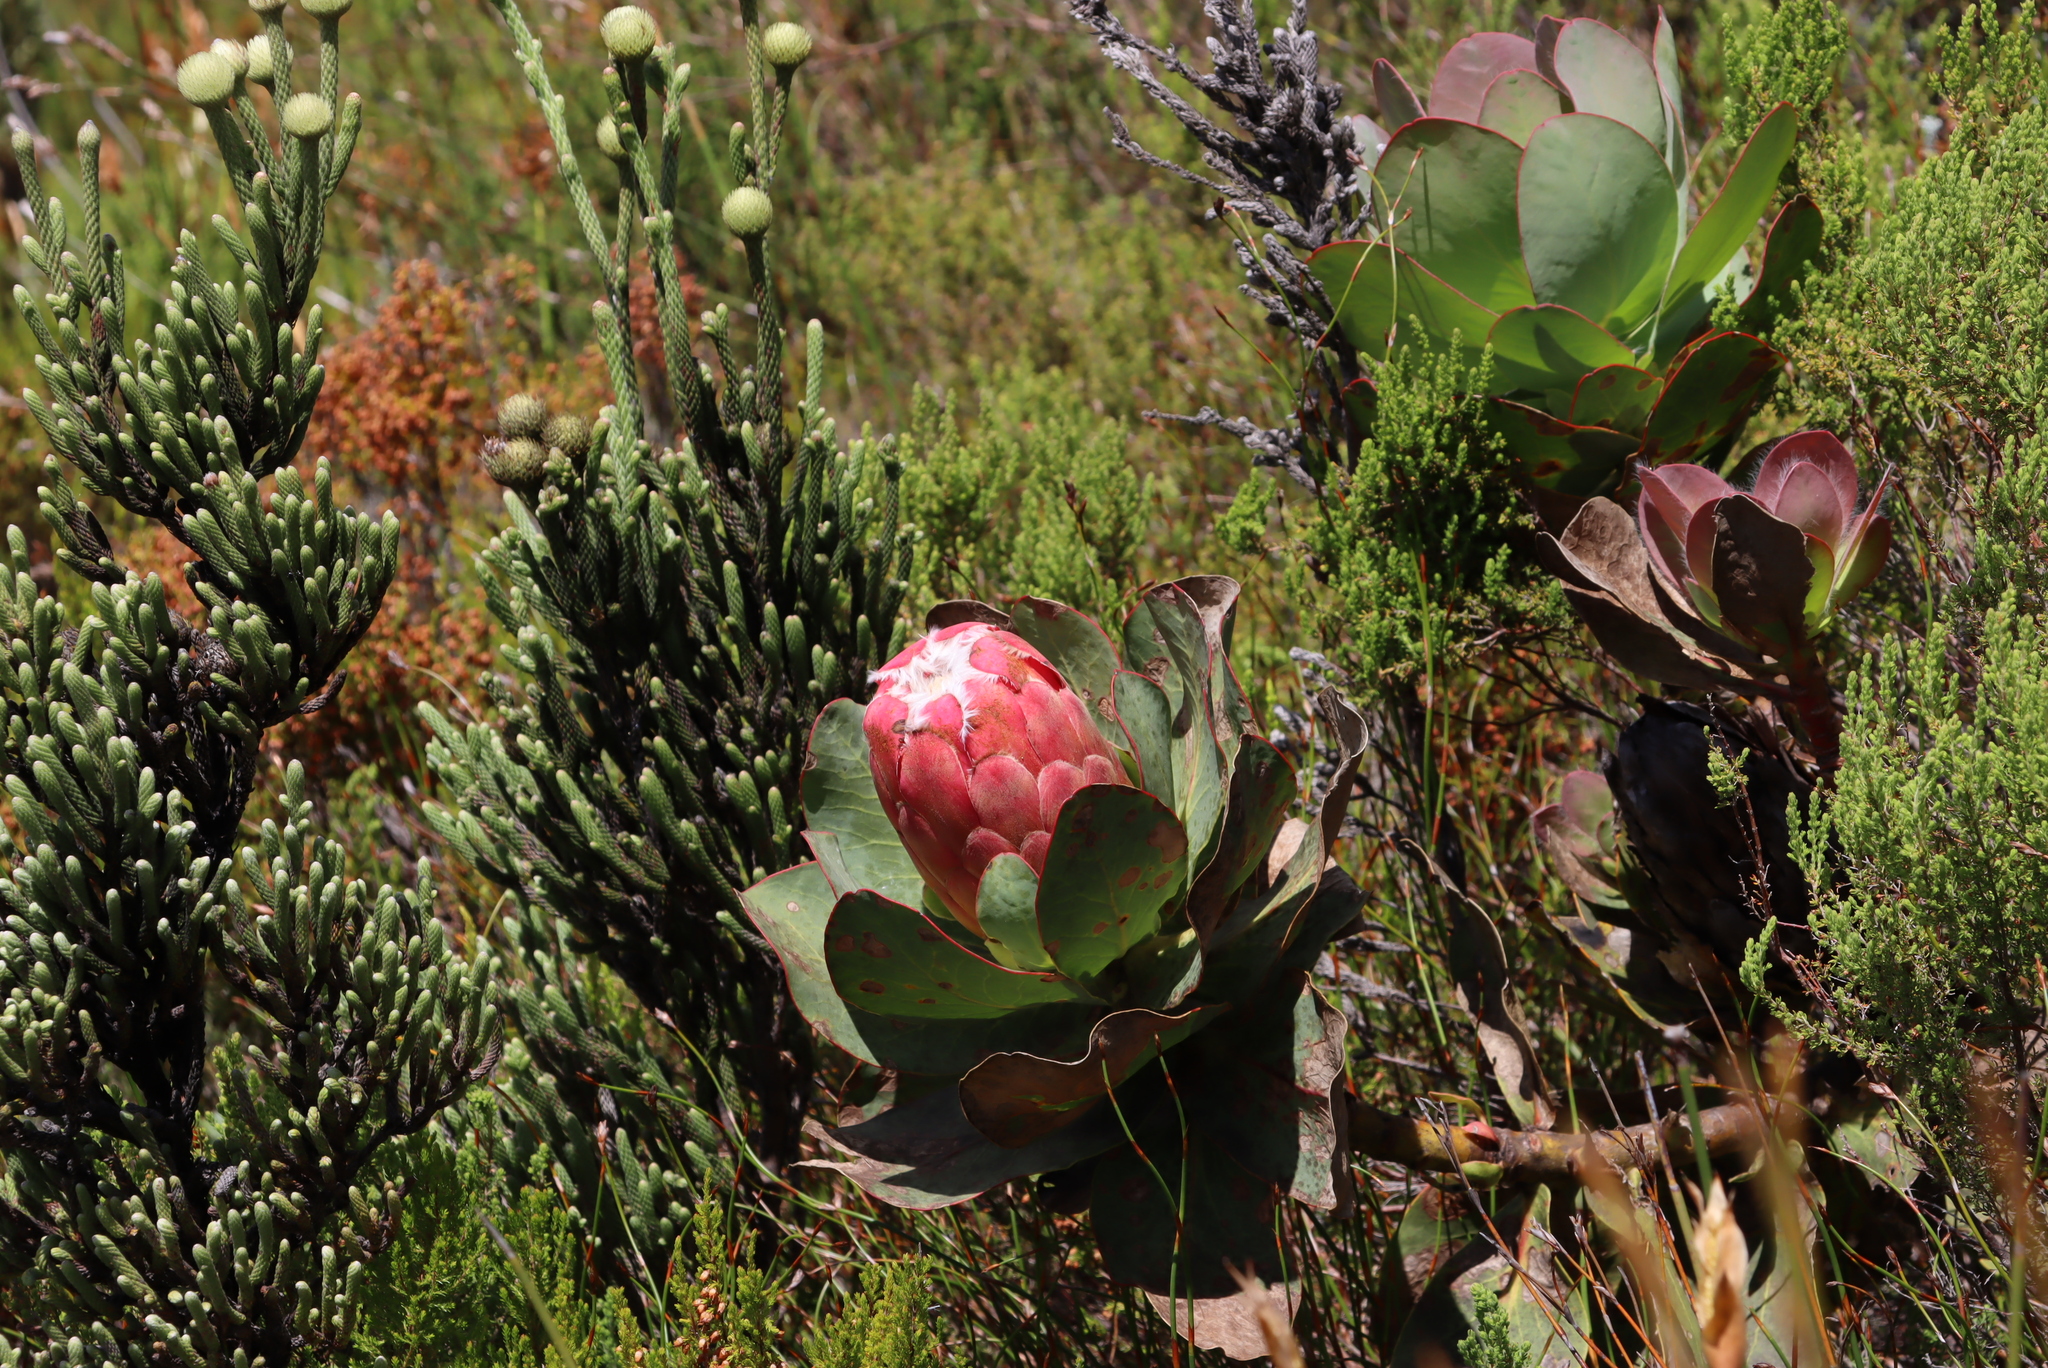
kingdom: Plantae
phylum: Tracheophyta
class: Magnoliopsida
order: Proteales
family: Proteaceae
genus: Protea
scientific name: Protea grandiceps
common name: Red sugarbush
